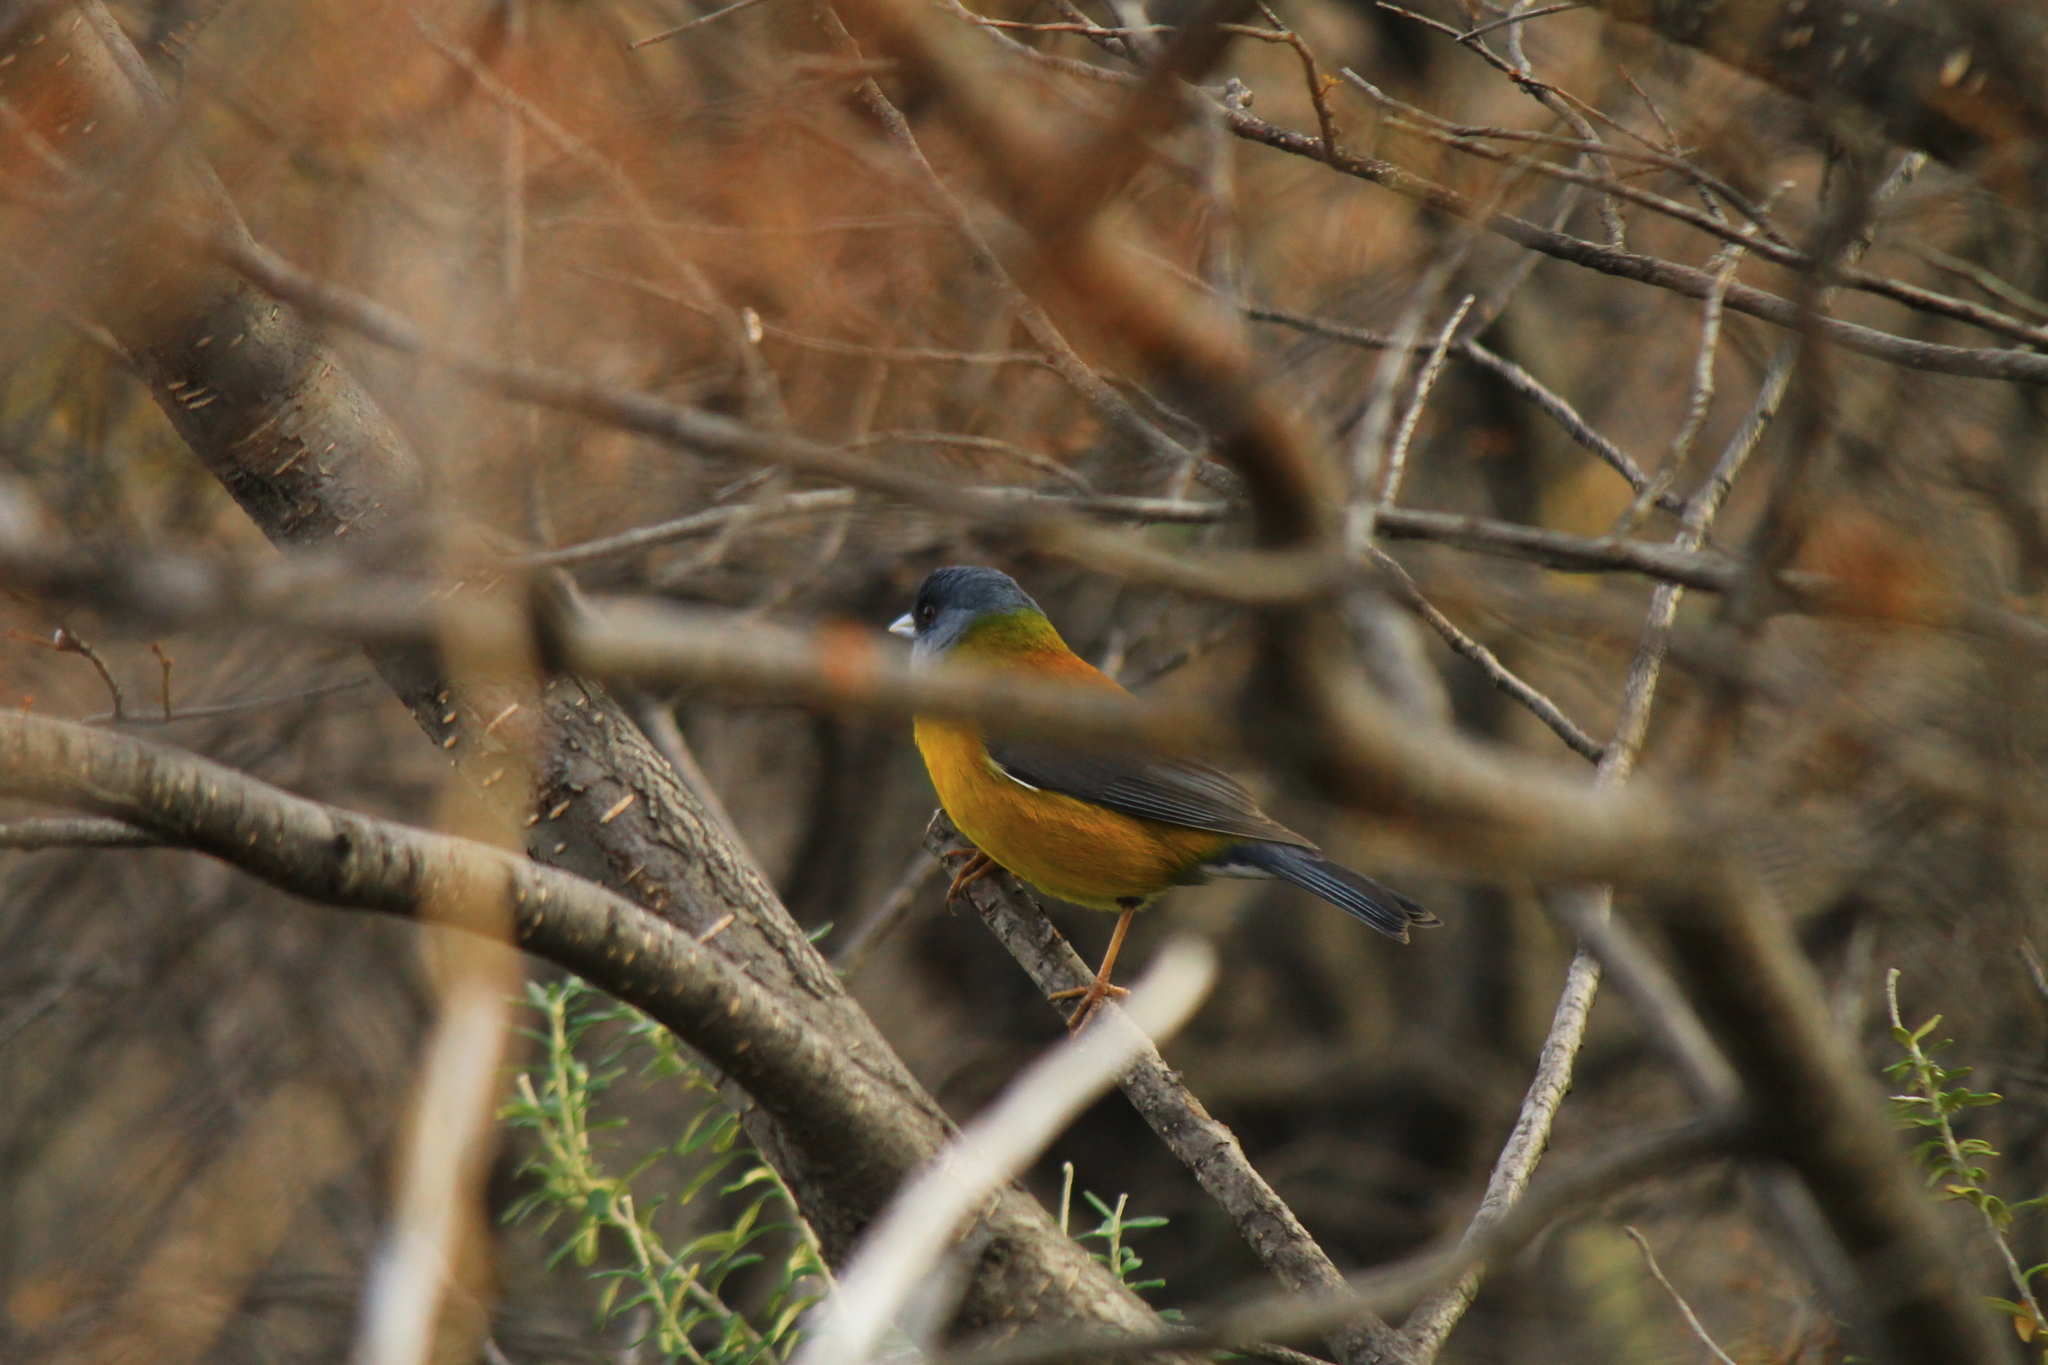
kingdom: Animalia
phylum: Chordata
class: Aves
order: Passeriformes
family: Thraupidae
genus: Phrygilus
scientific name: Phrygilus patagonicus
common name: Patagonian sierra finch
